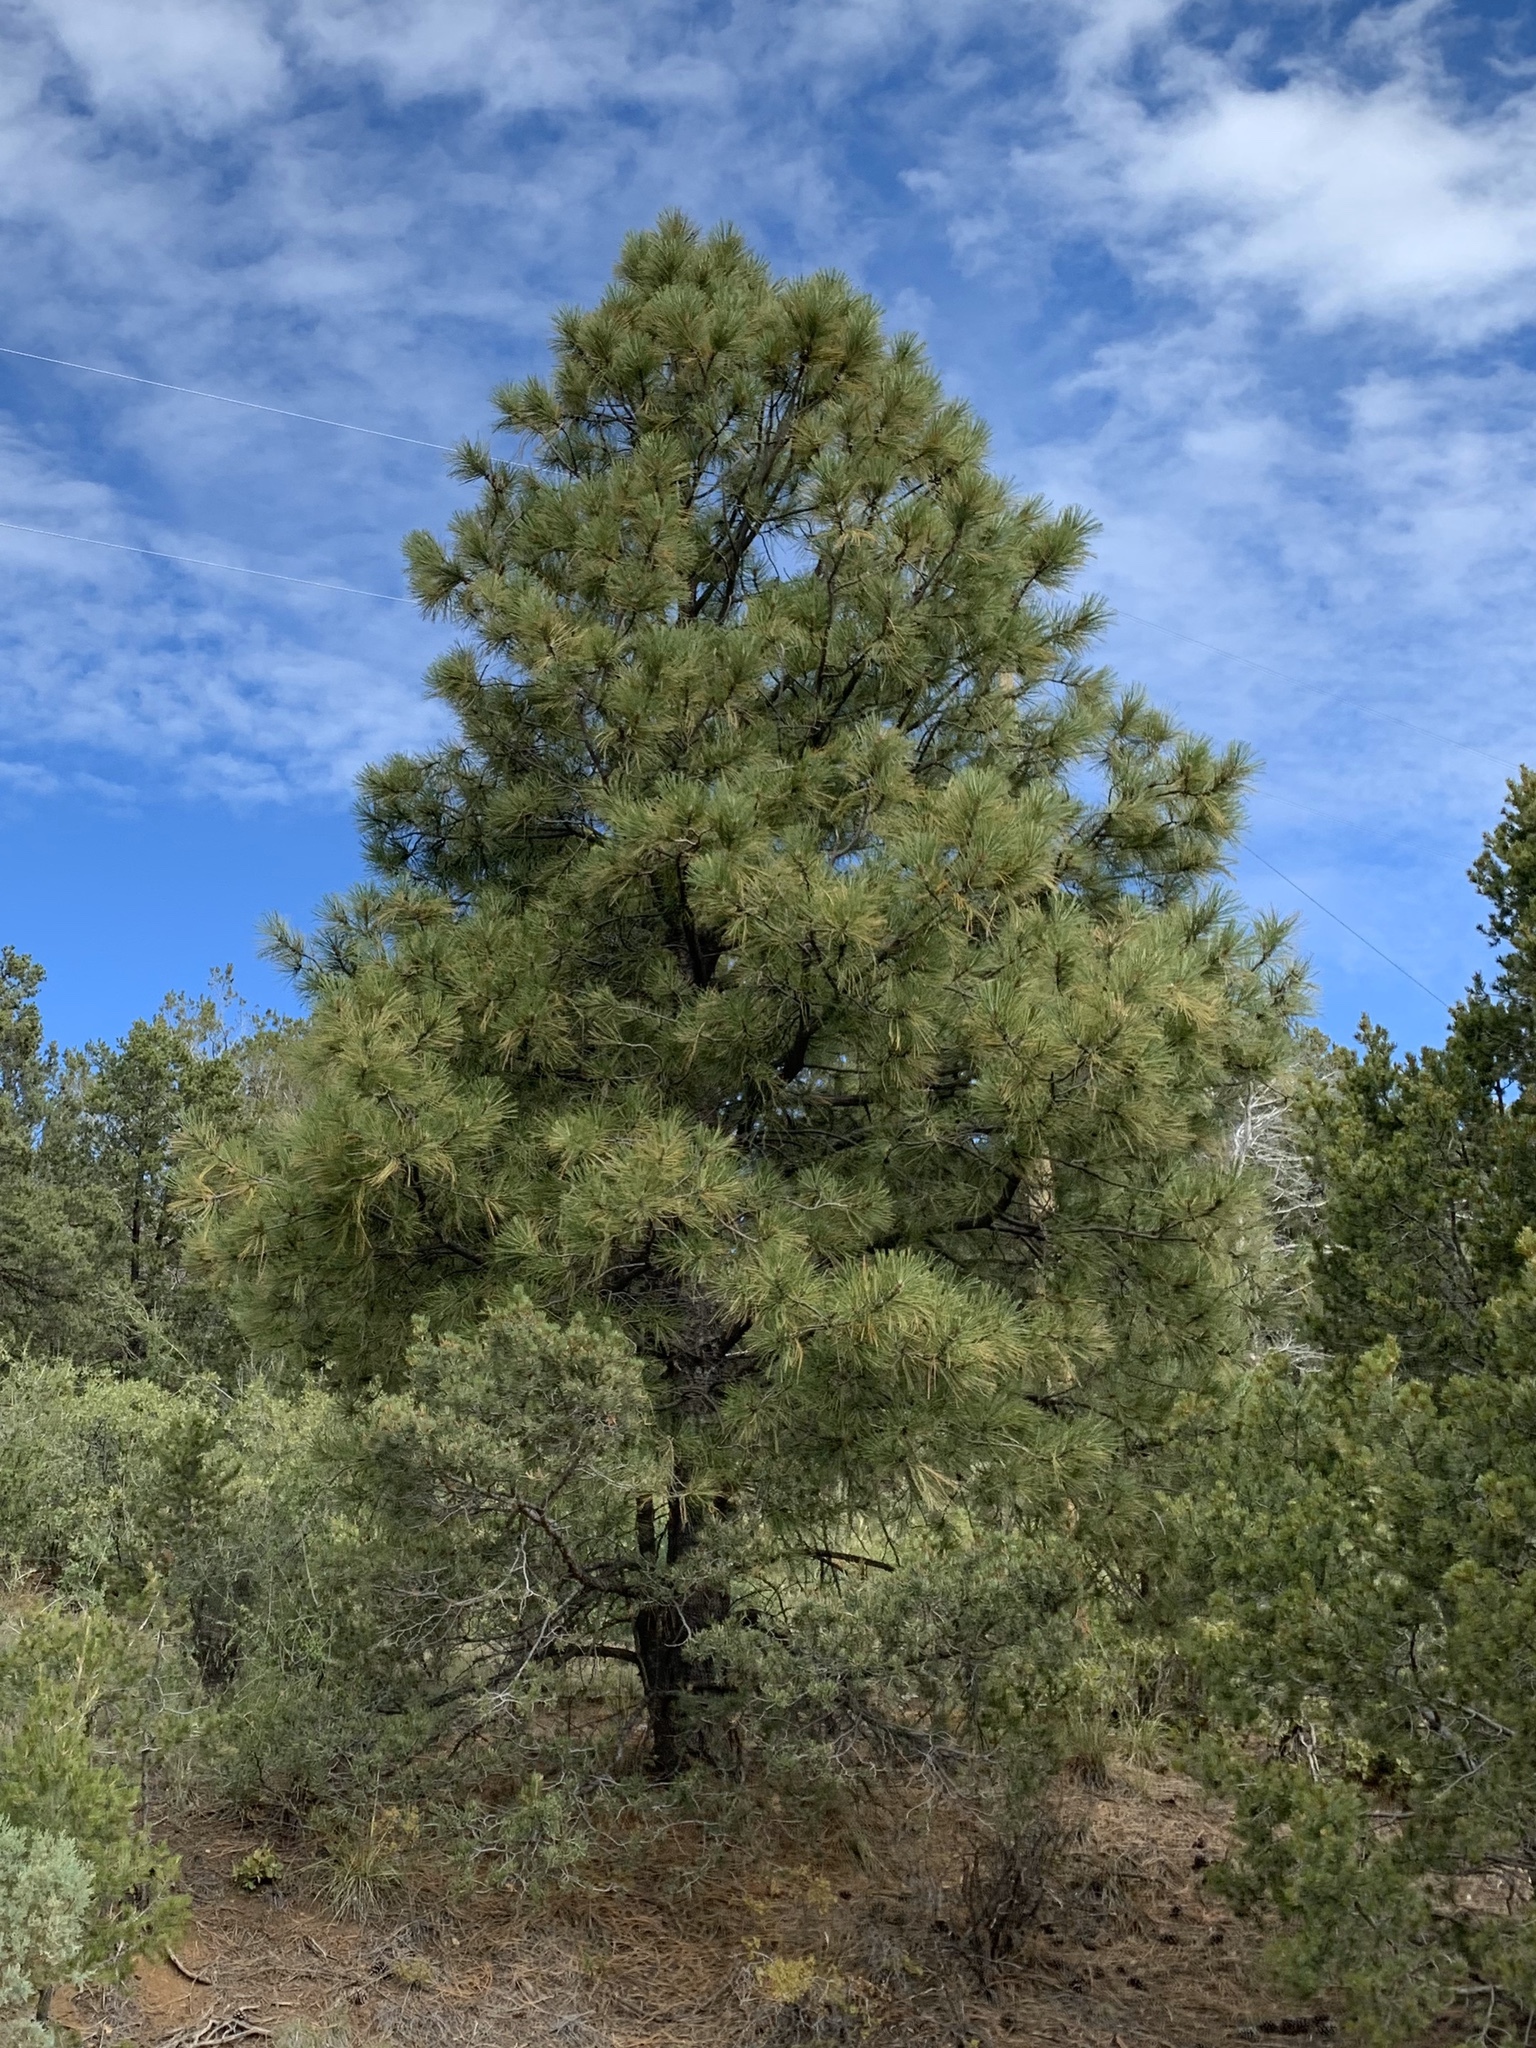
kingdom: Plantae
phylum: Tracheophyta
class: Pinopsida
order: Pinales
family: Pinaceae
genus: Pinus
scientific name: Pinus ponderosa
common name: Western yellow-pine
